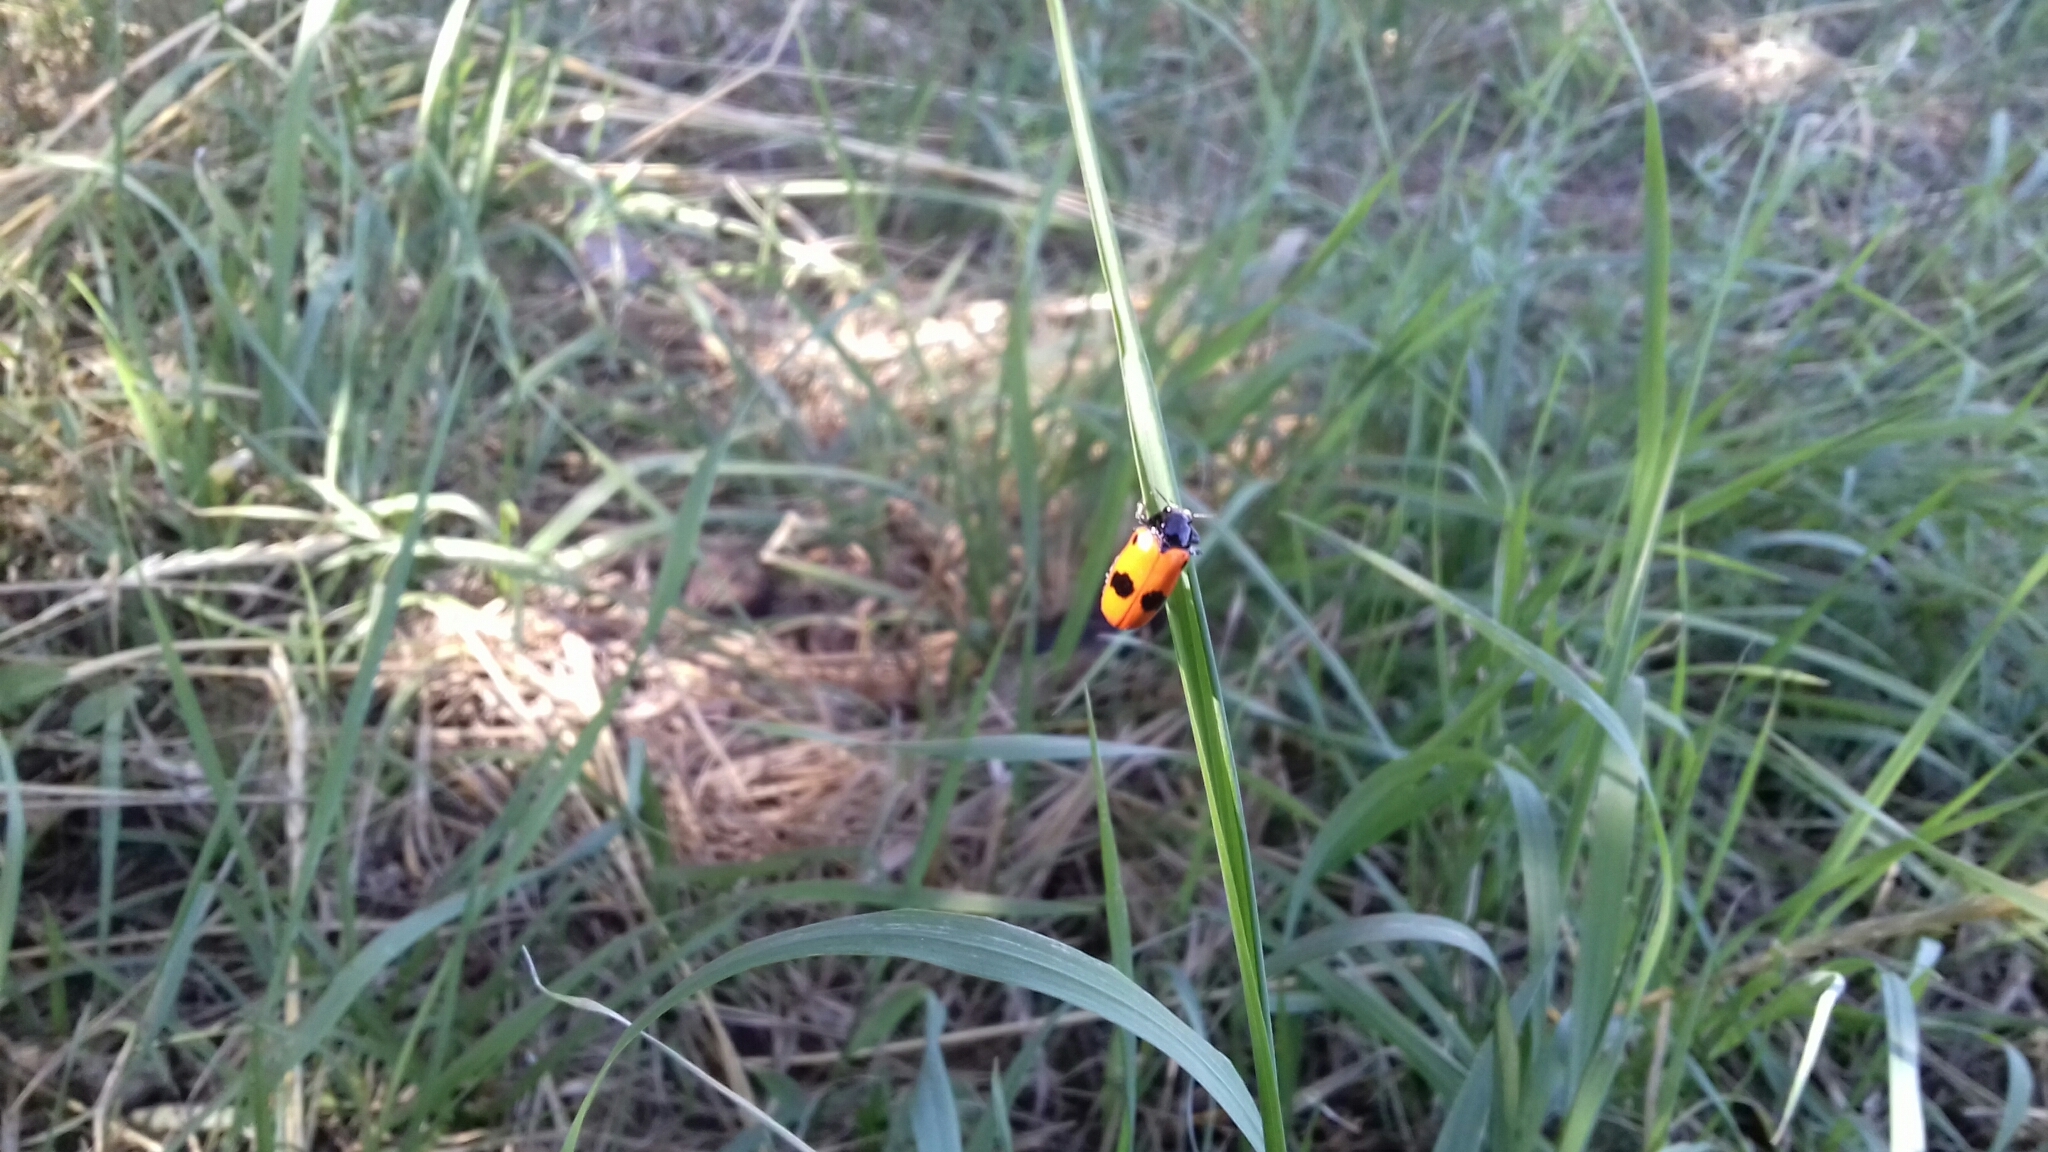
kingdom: Animalia
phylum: Arthropoda
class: Insecta
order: Coleoptera
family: Chrysomelidae
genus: Clytra
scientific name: Clytra laeviuscula
